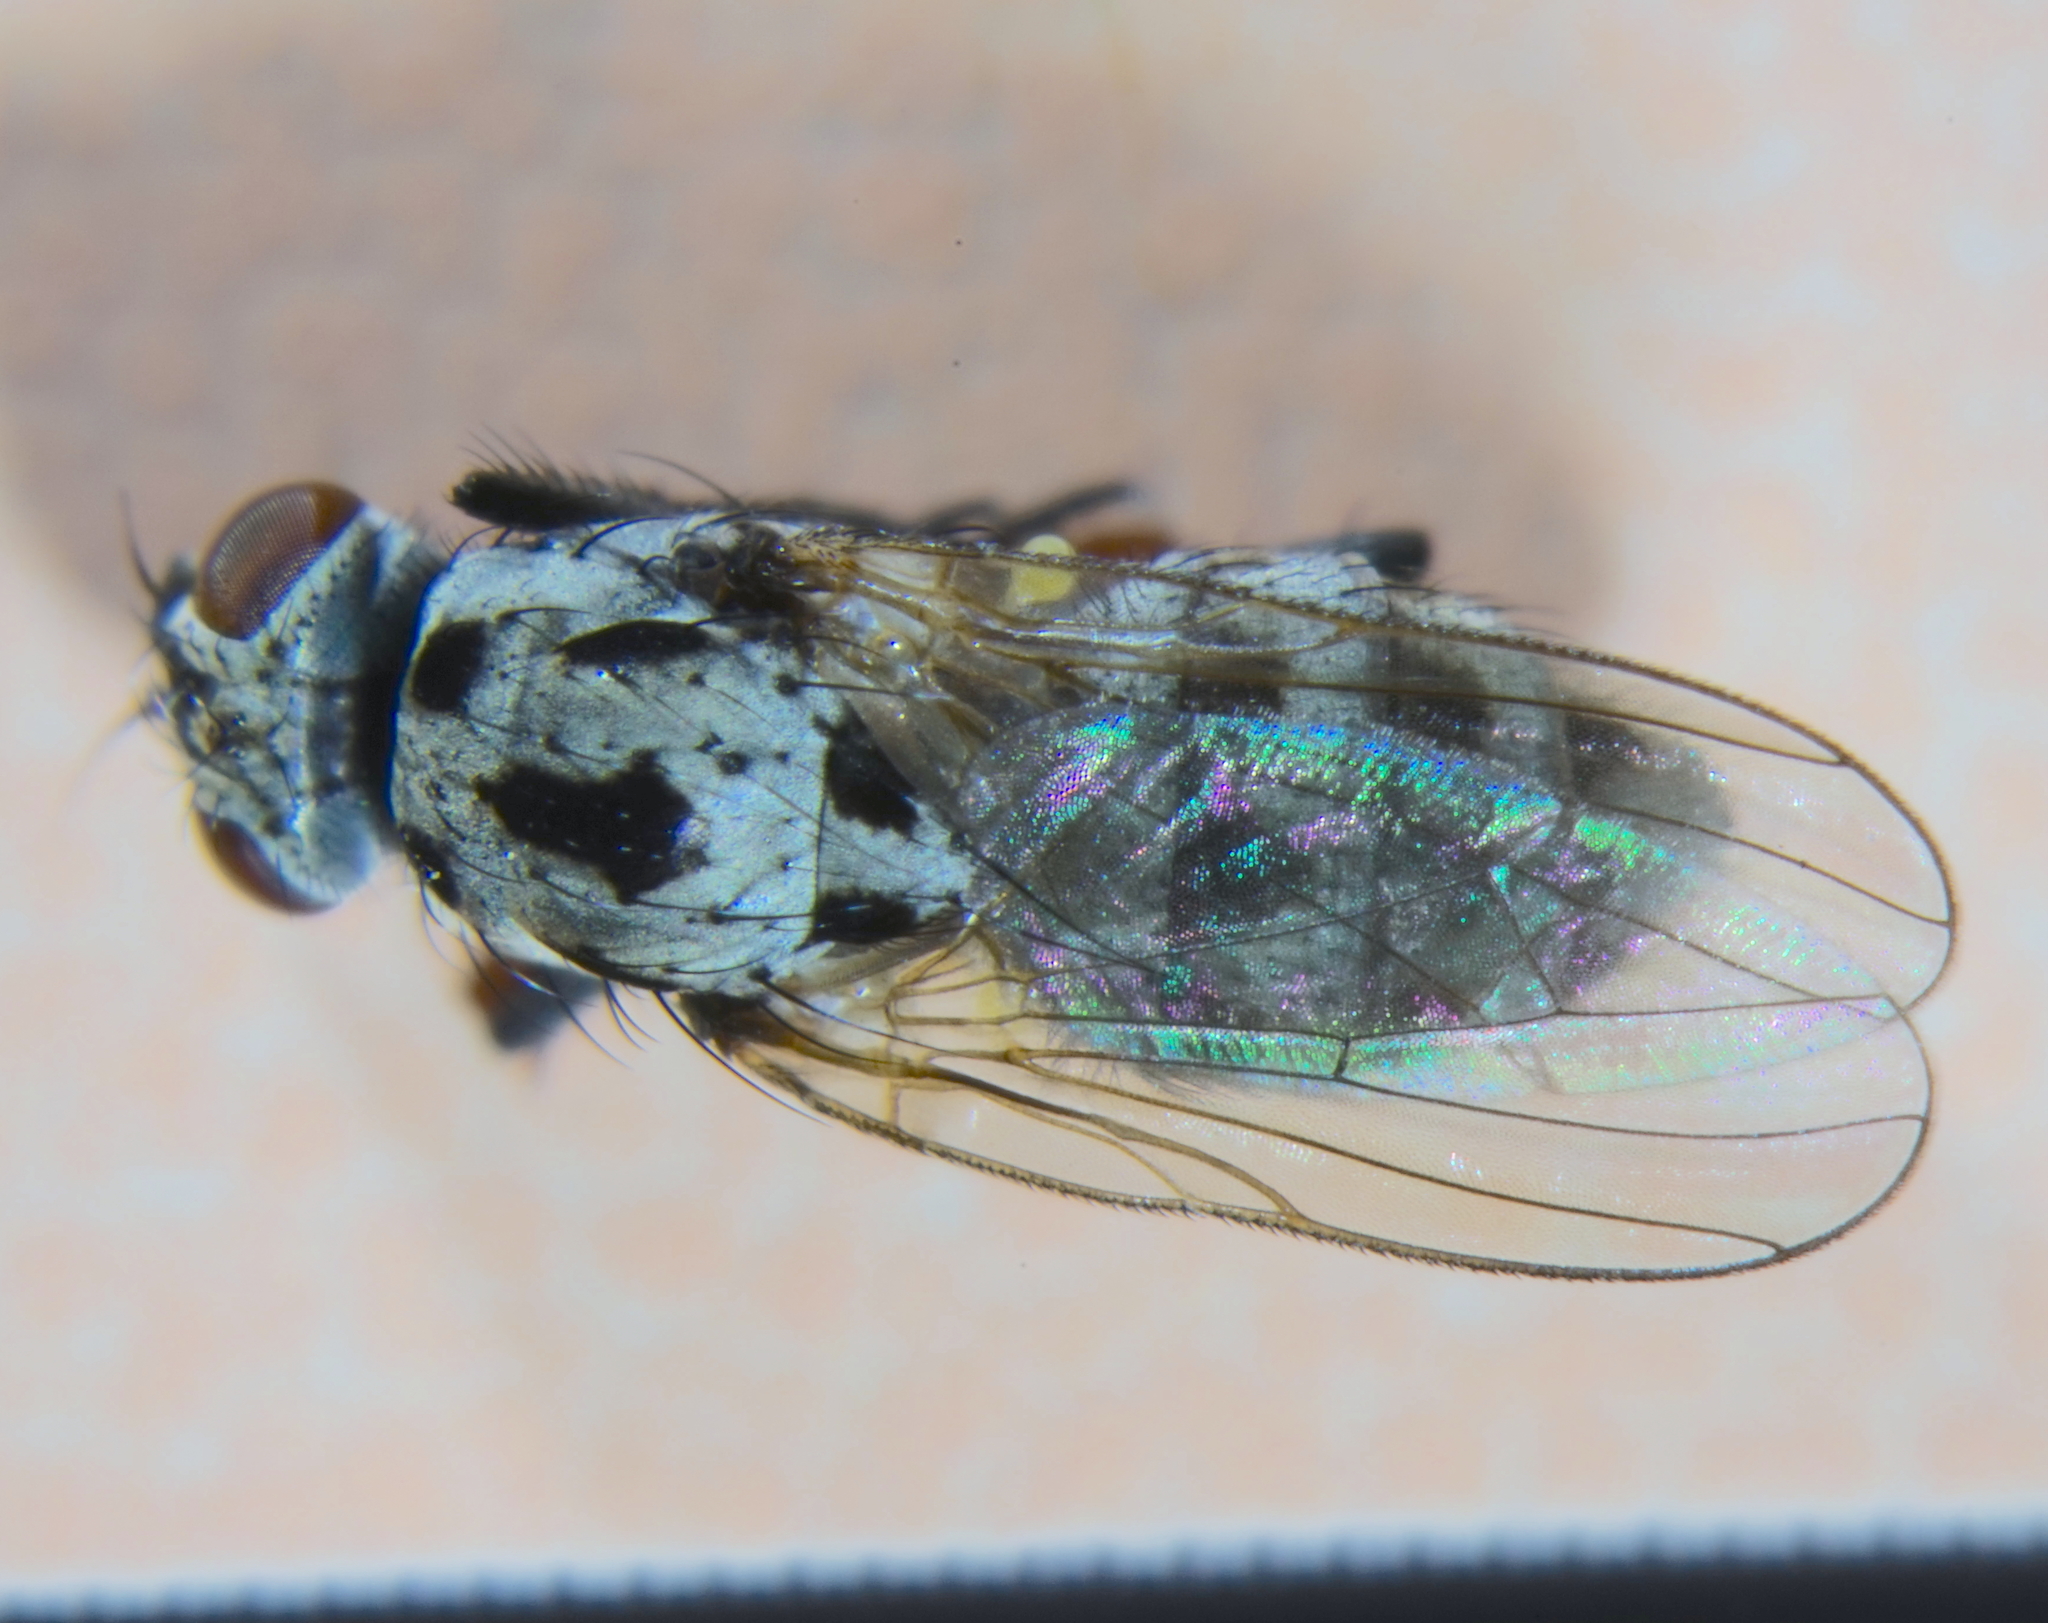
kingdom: Animalia
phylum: Arthropoda
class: Insecta
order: Diptera
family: Anthomyiidae
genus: Anthomyia
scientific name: Anthomyia pluvialis
